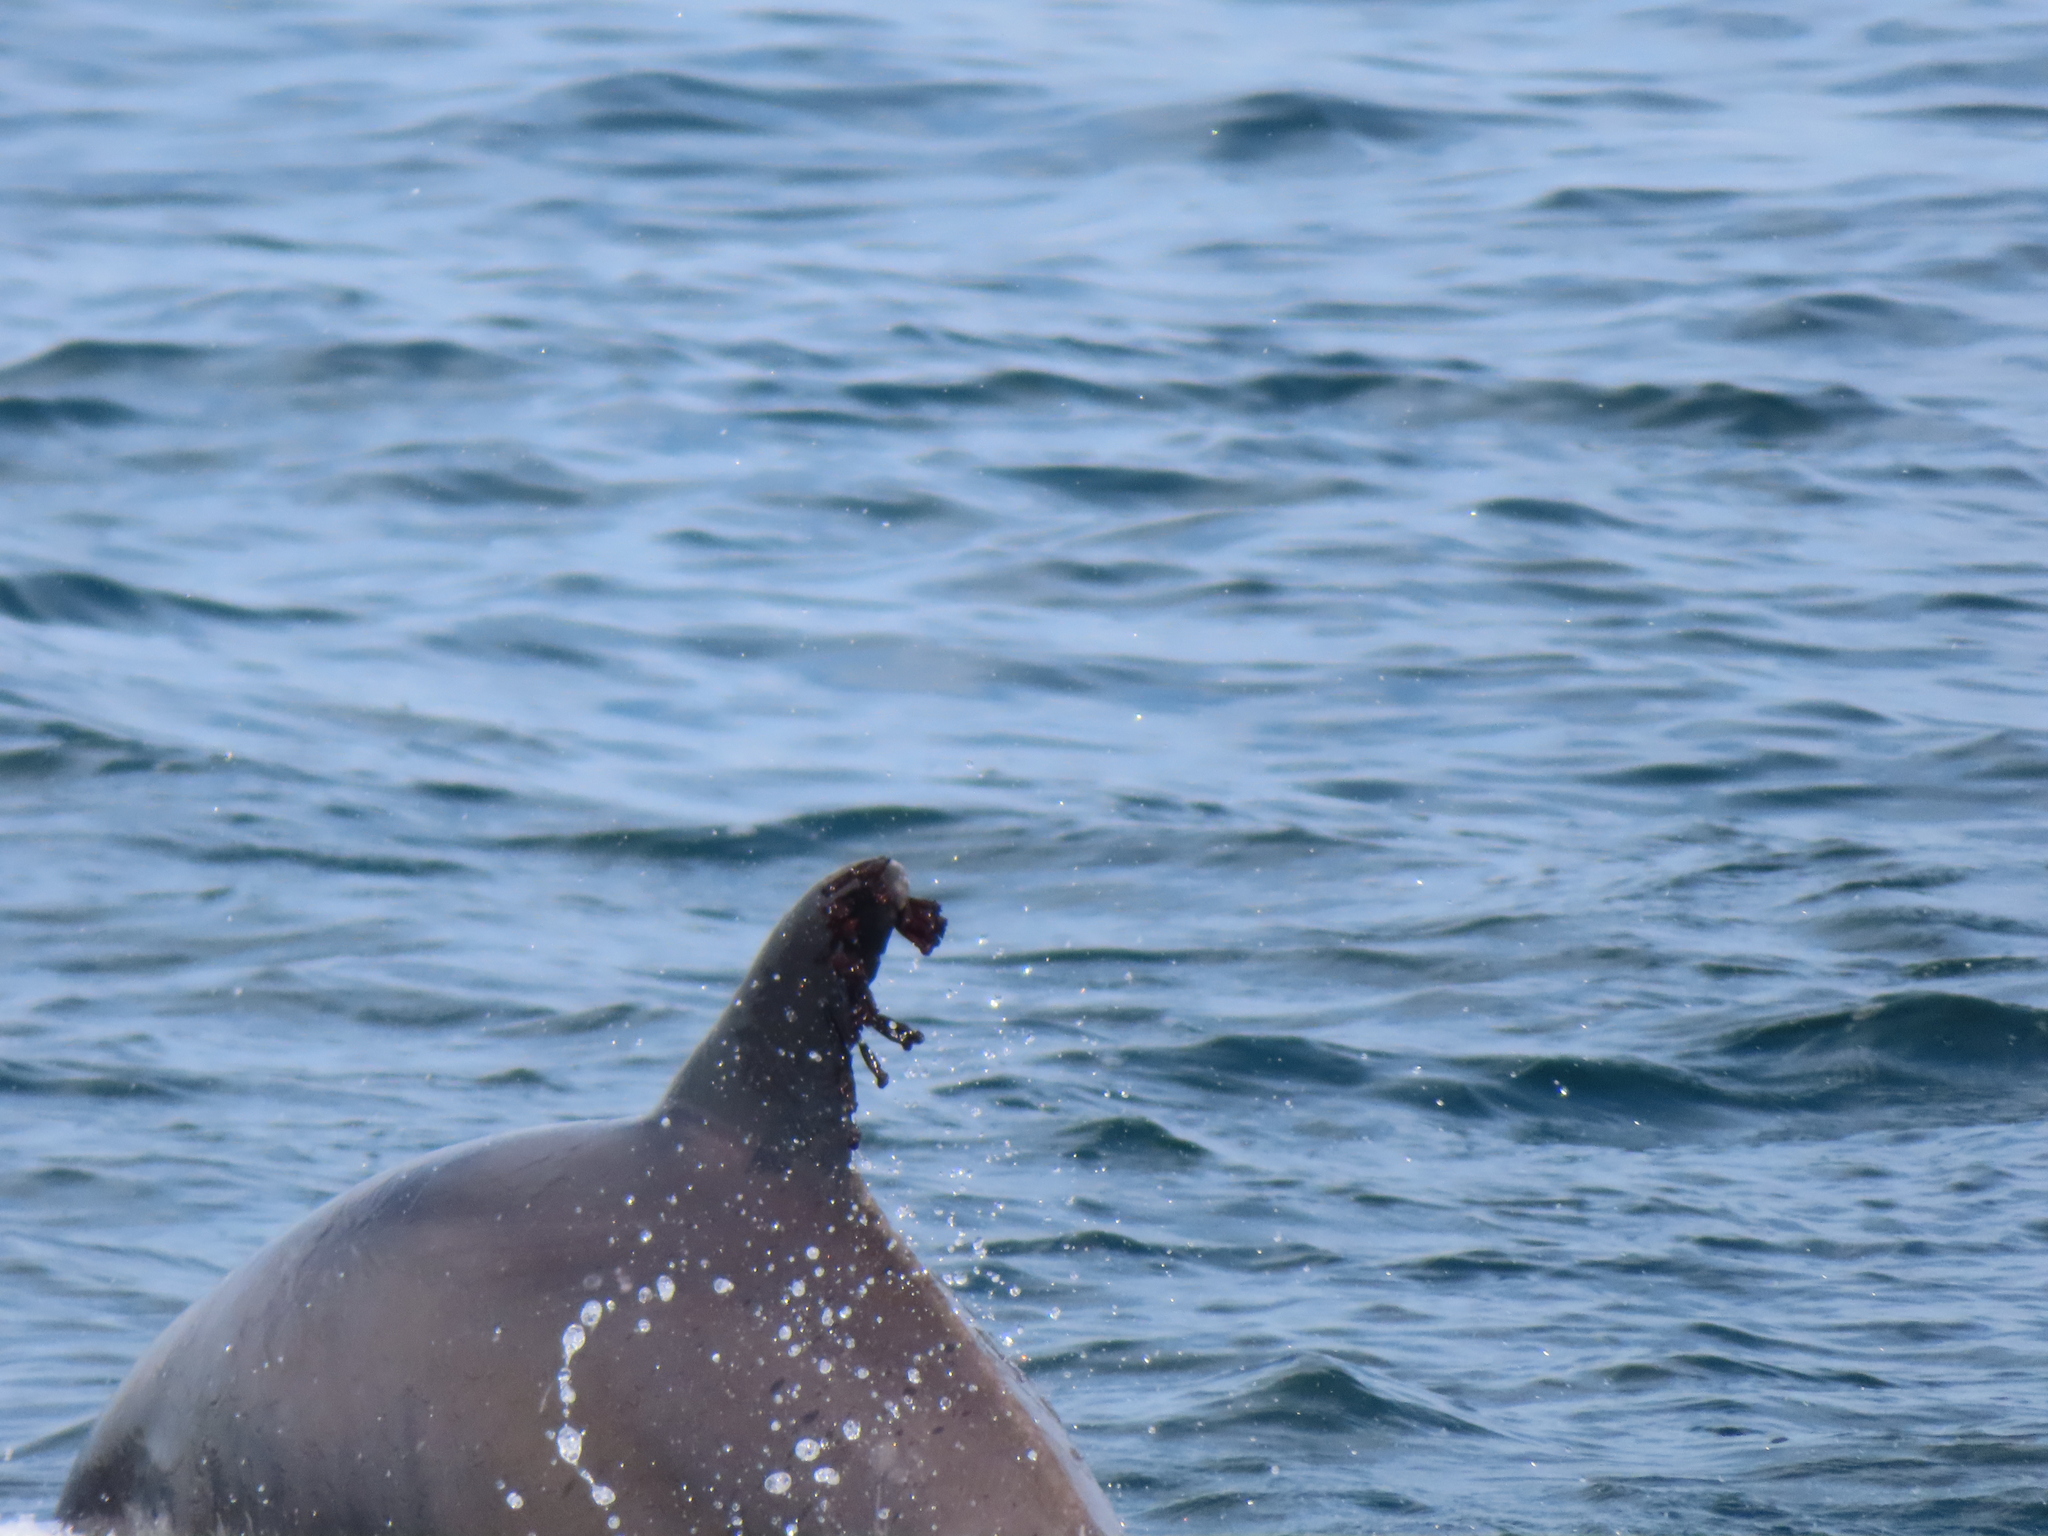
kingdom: Animalia
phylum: Arthropoda
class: Maxillopoda
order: Sessilia
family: Coronulidae
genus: Xenobalanus
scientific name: Xenobalanus globicipitis
